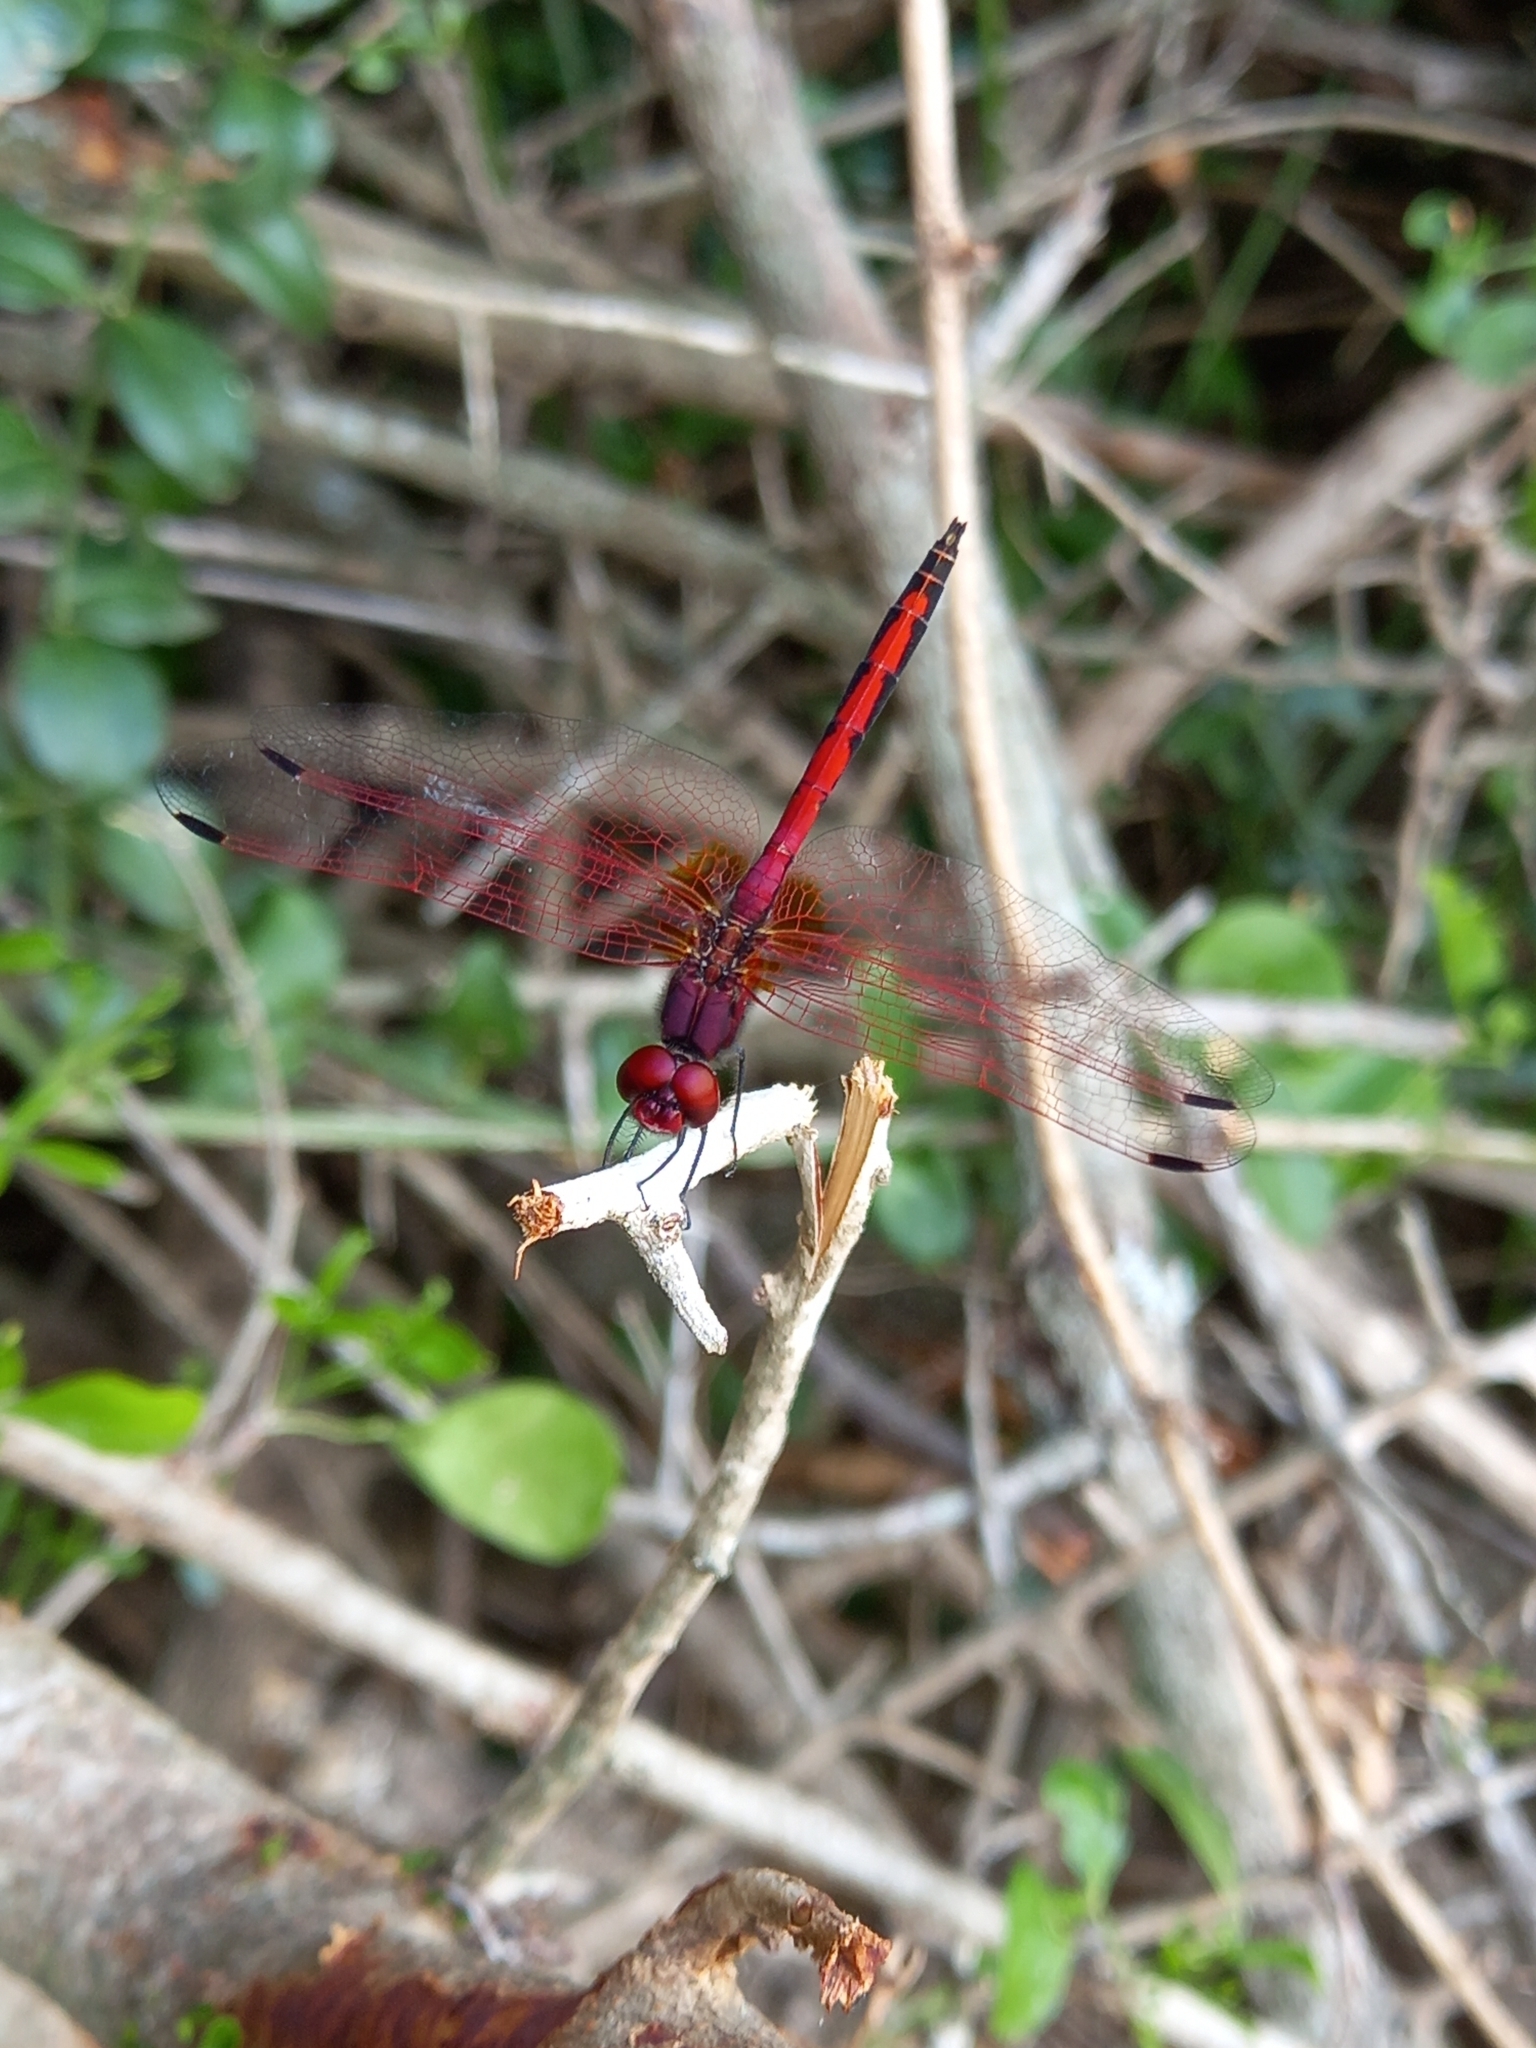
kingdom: Animalia
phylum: Arthropoda
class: Insecta
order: Odonata
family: Libellulidae
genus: Trithemis
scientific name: Trithemis arteriosa
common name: Red-veined dropwing
